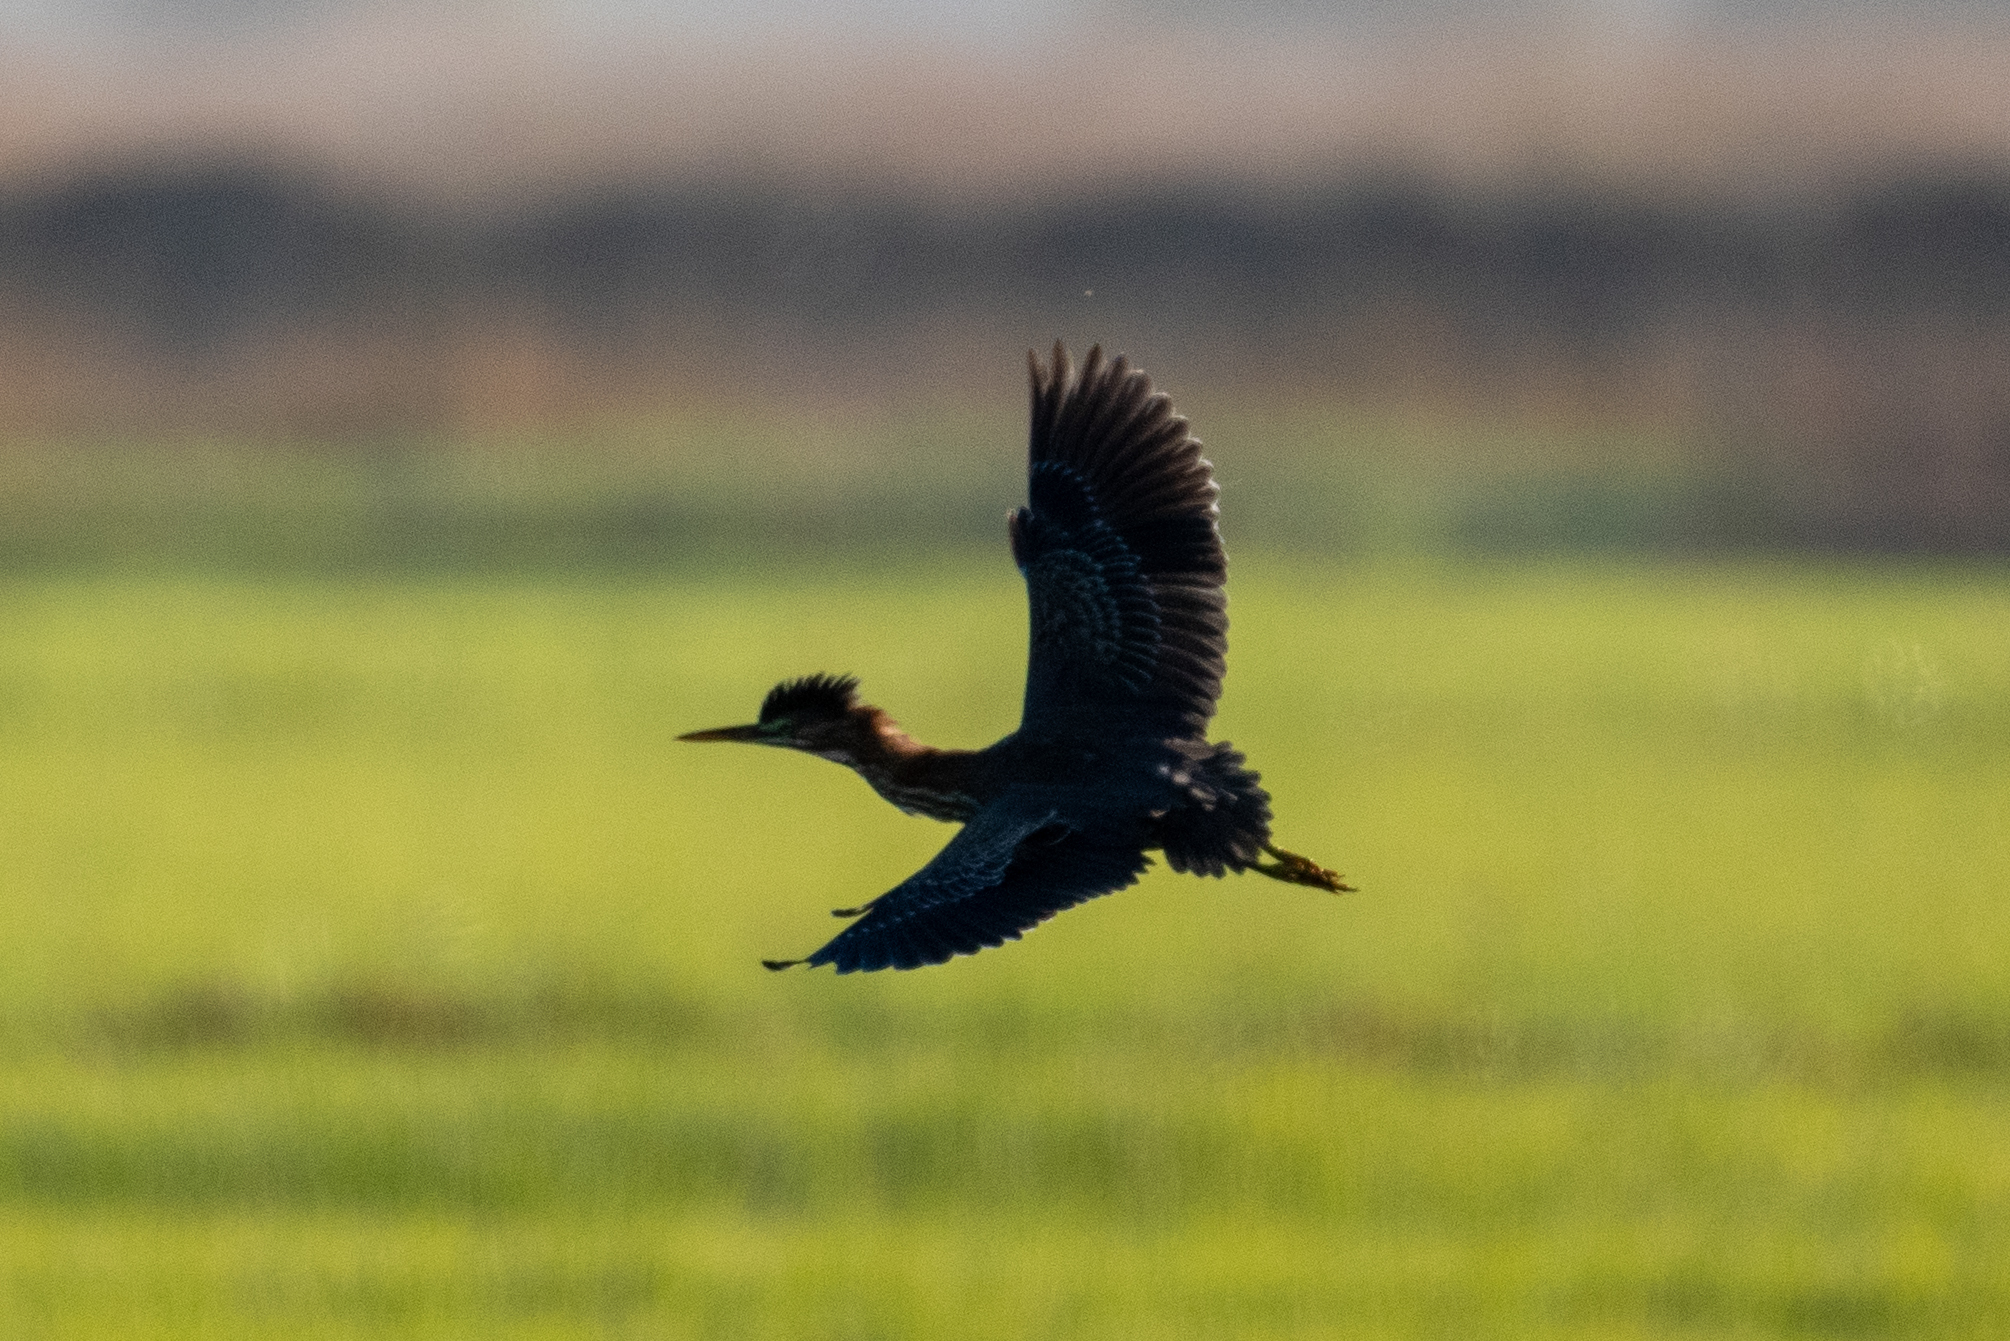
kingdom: Animalia
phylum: Chordata
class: Aves
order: Pelecaniformes
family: Ardeidae
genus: Butorides
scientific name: Butorides virescens
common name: Green heron
